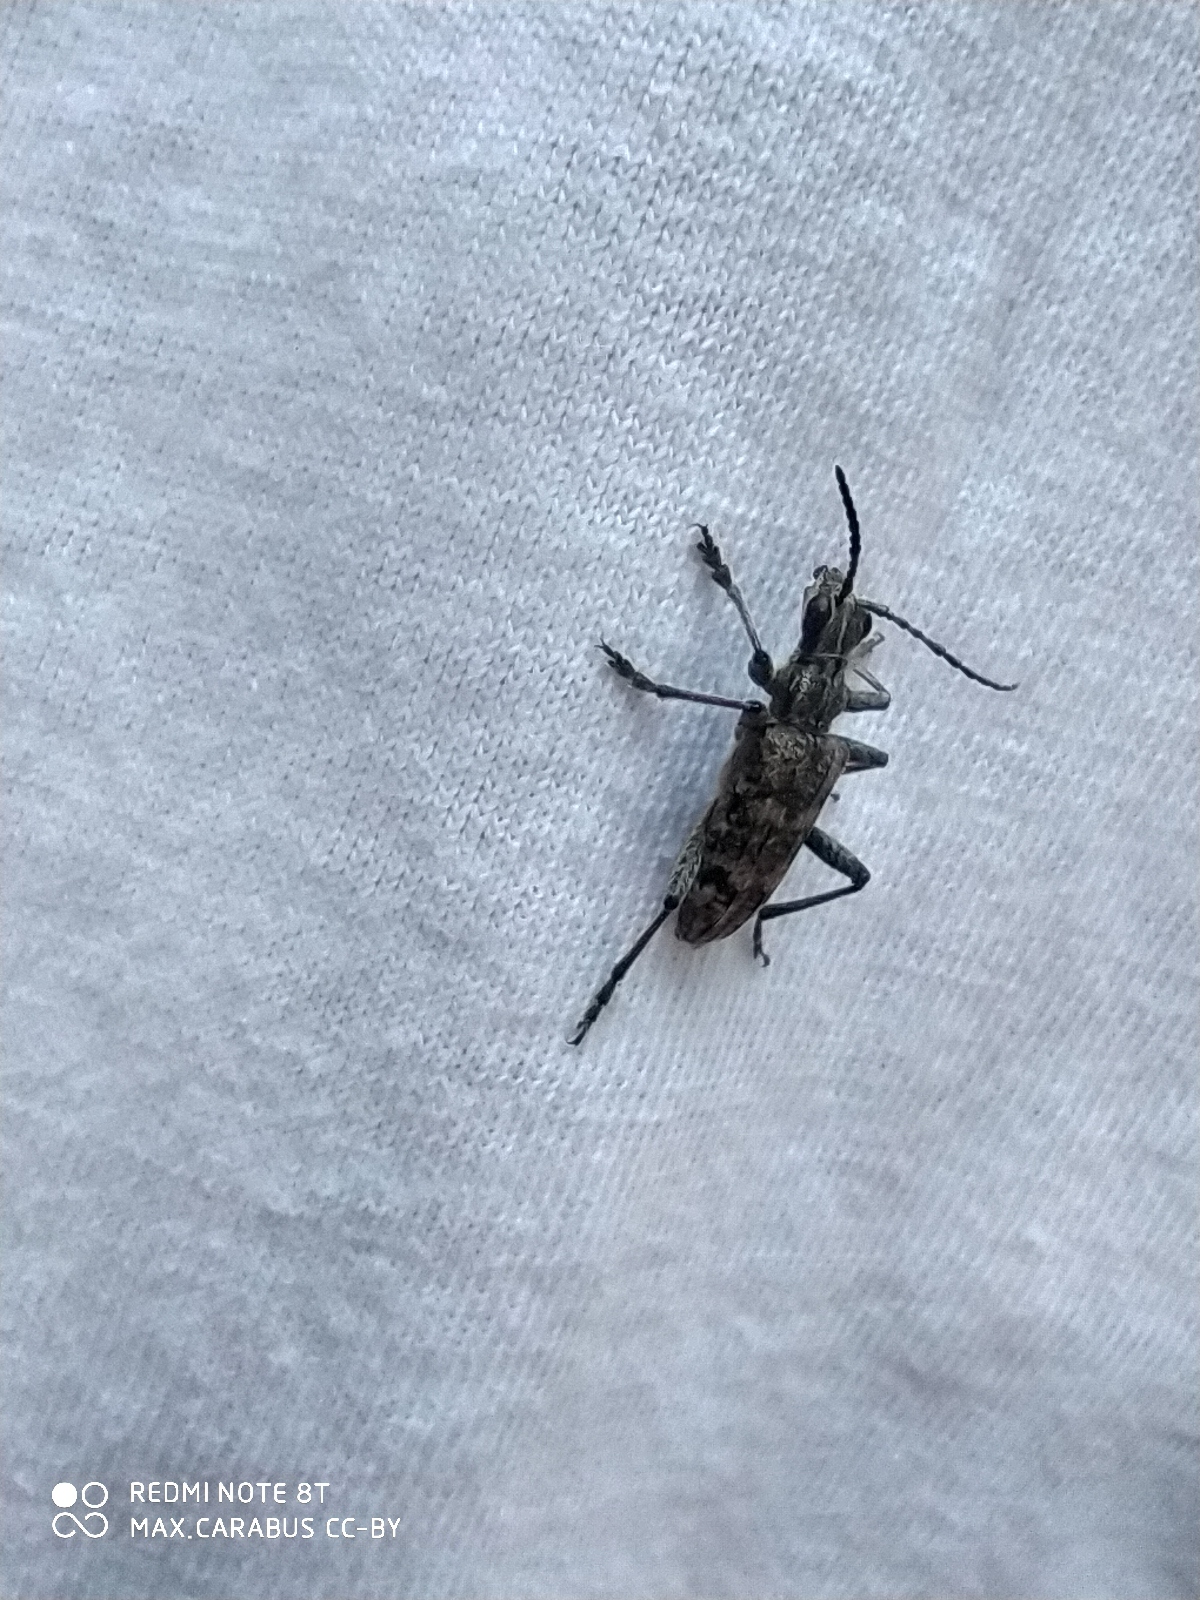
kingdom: Animalia
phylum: Arthropoda
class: Insecta
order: Coleoptera
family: Cerambycidae
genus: Rhagium
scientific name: Rhagium inquisitor
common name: Ribbed pine borer
